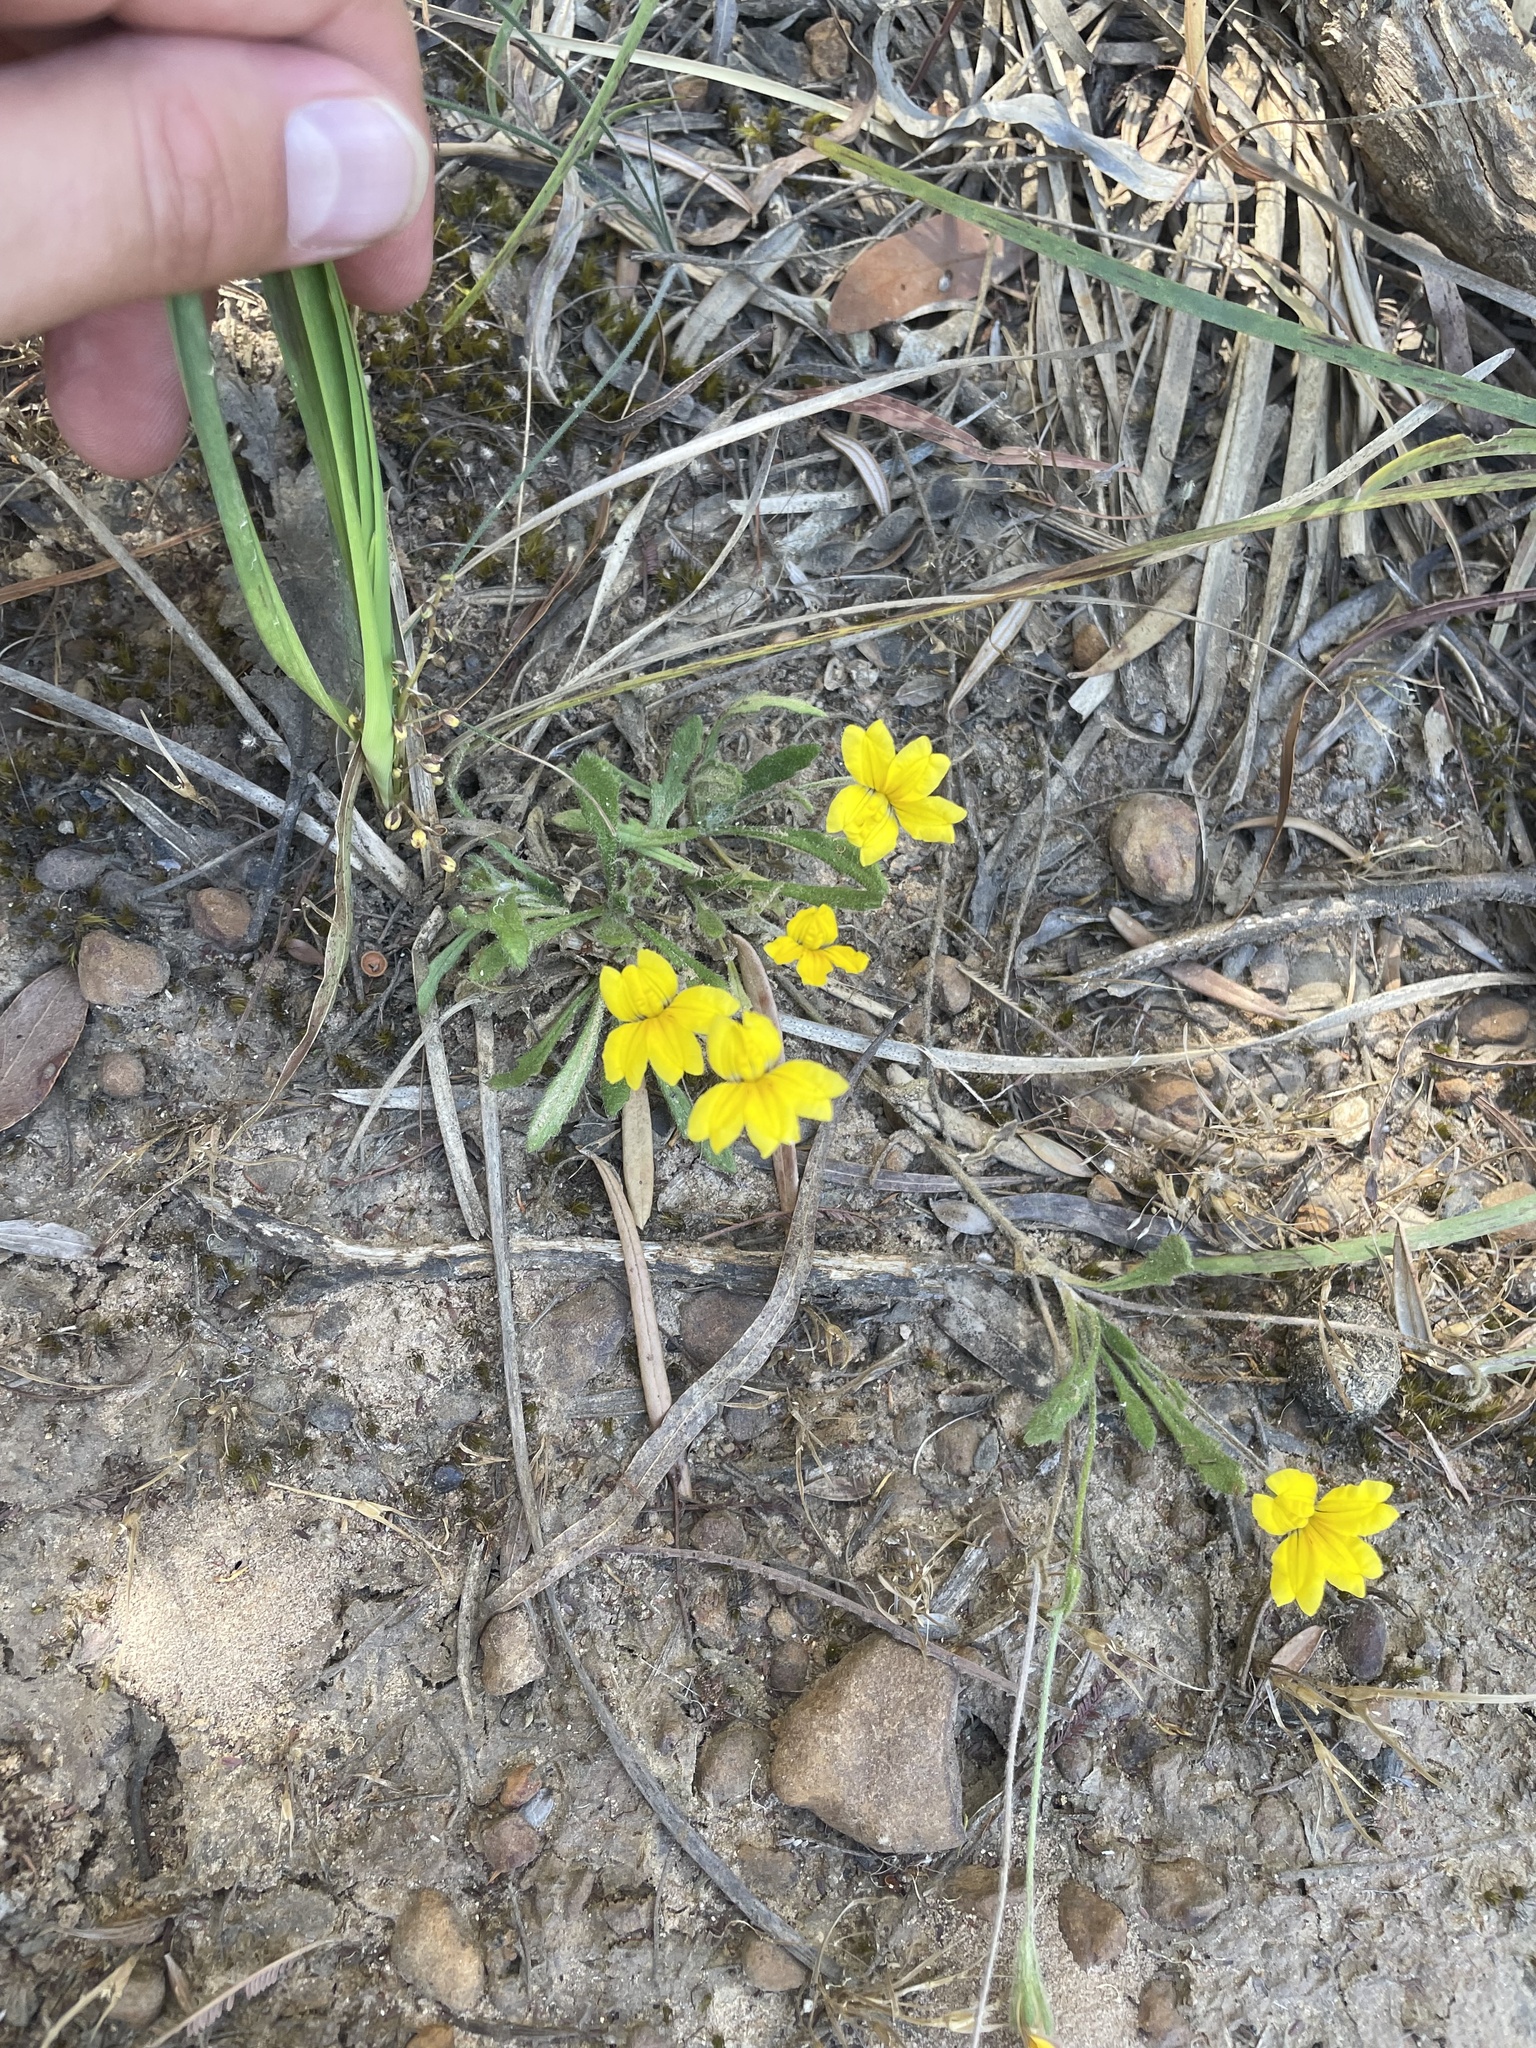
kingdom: Plantae
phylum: Tracheophyta
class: Magnoliopsida
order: Asterales
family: Goodeniaceae
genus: Goodenia
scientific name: Goodenia geniculata
